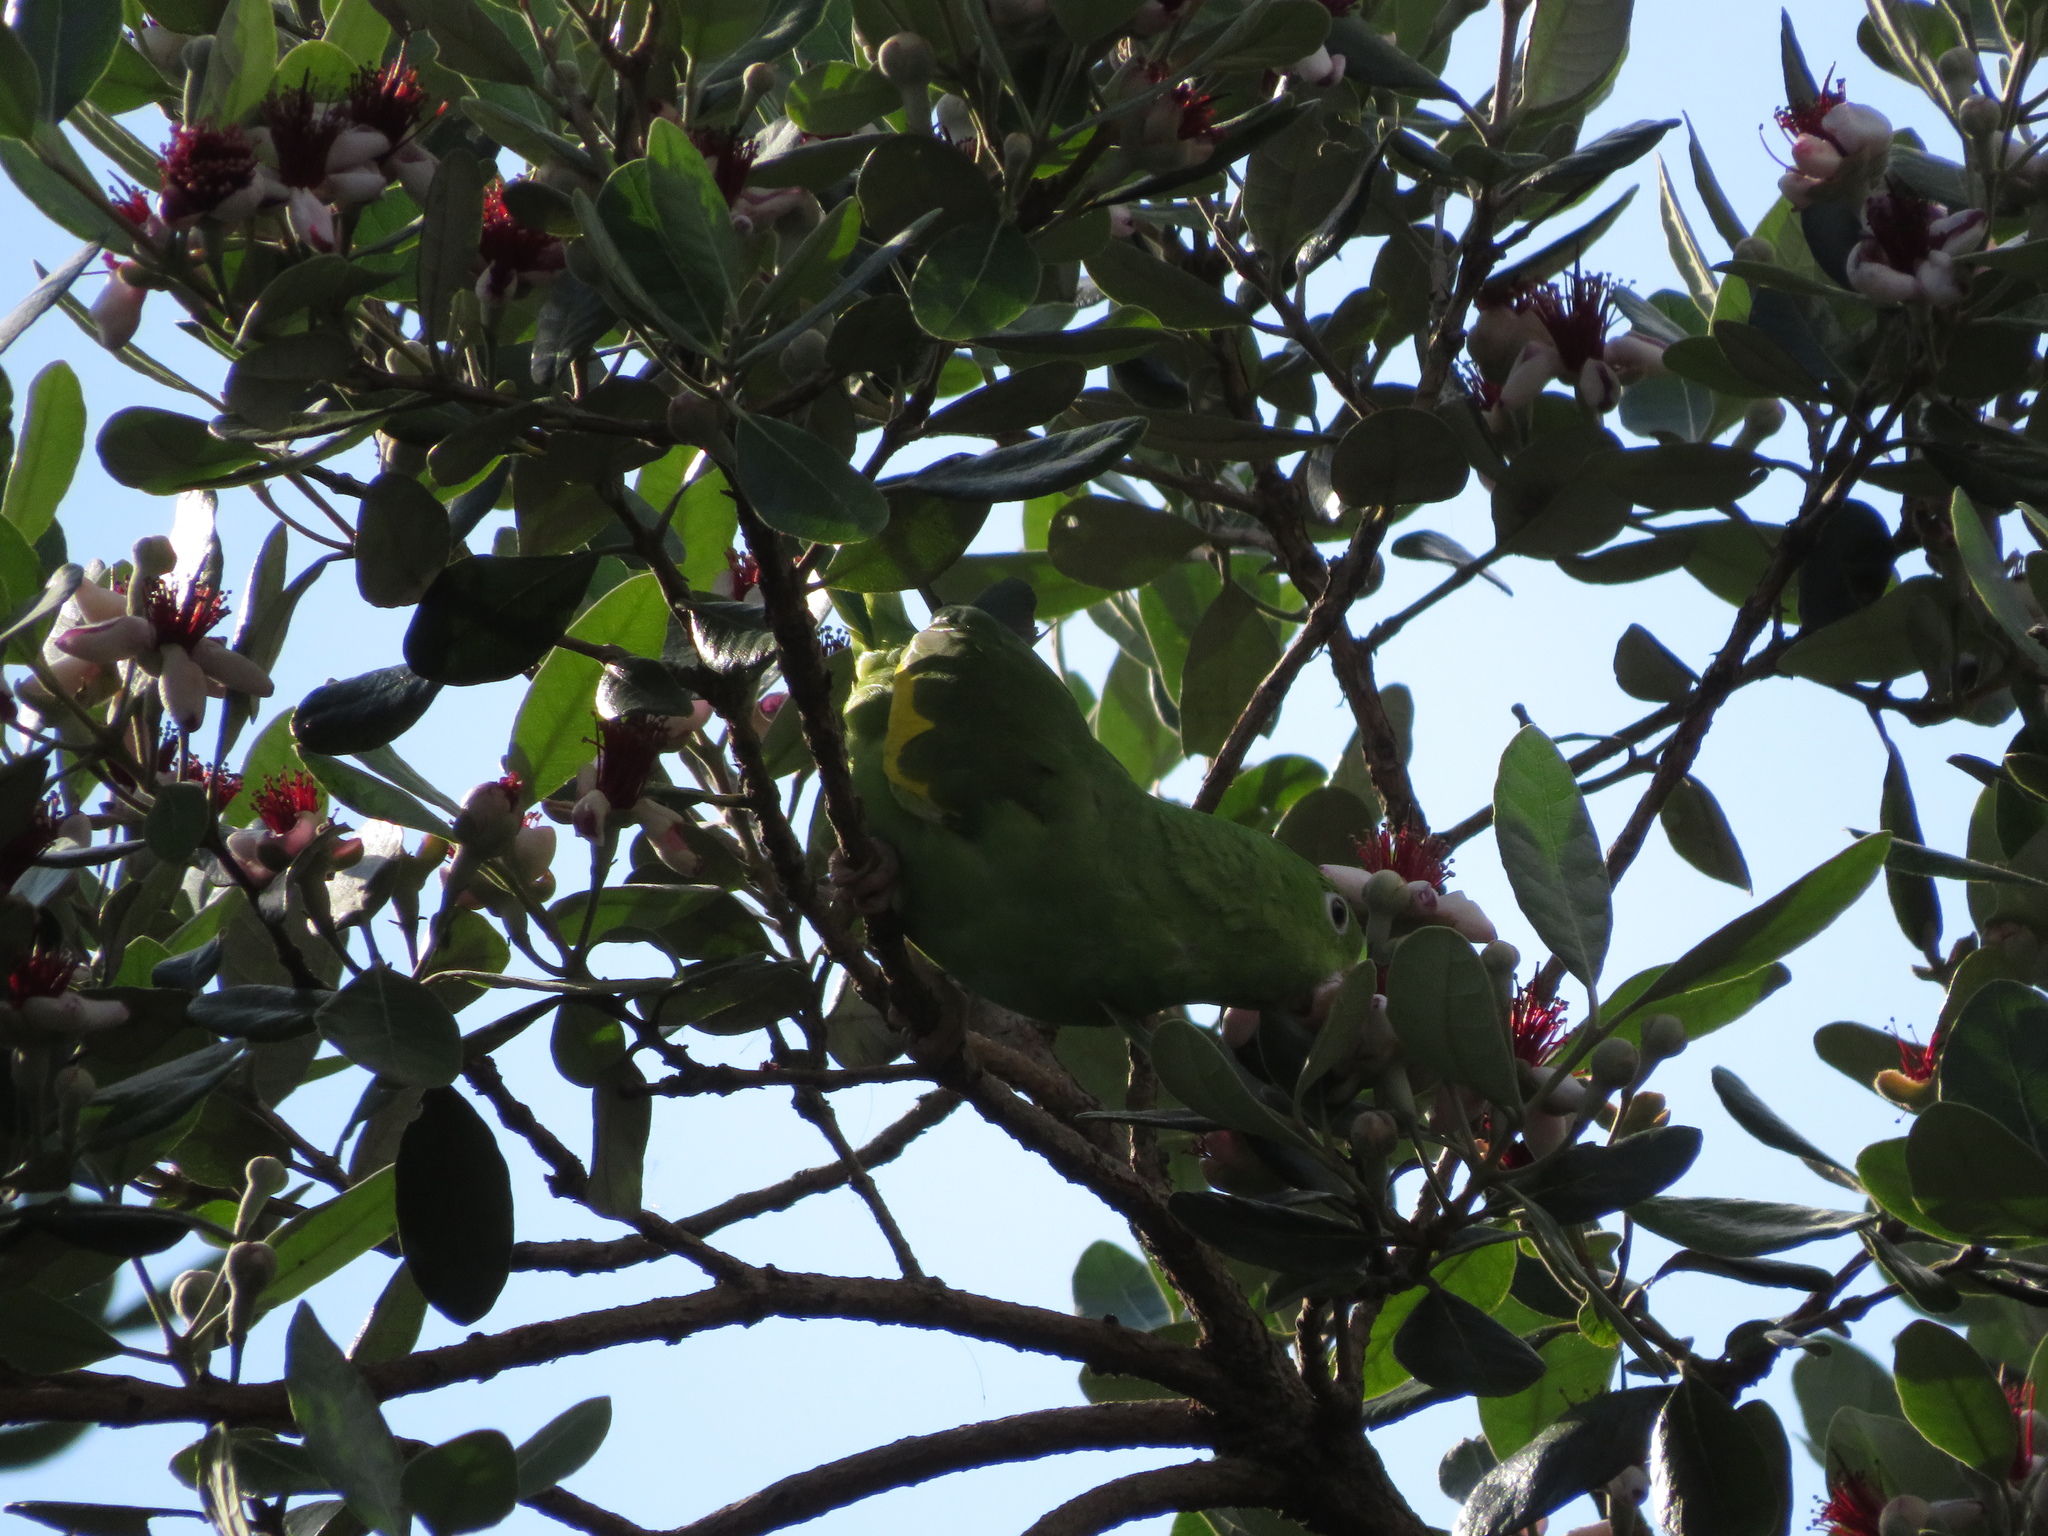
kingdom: Animalia
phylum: Chordata
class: Aves
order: Psittaciformes
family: Psittacidae
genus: Brotogeris
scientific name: Brotogeris chiriri
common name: Yellow-chevroned parakeet
